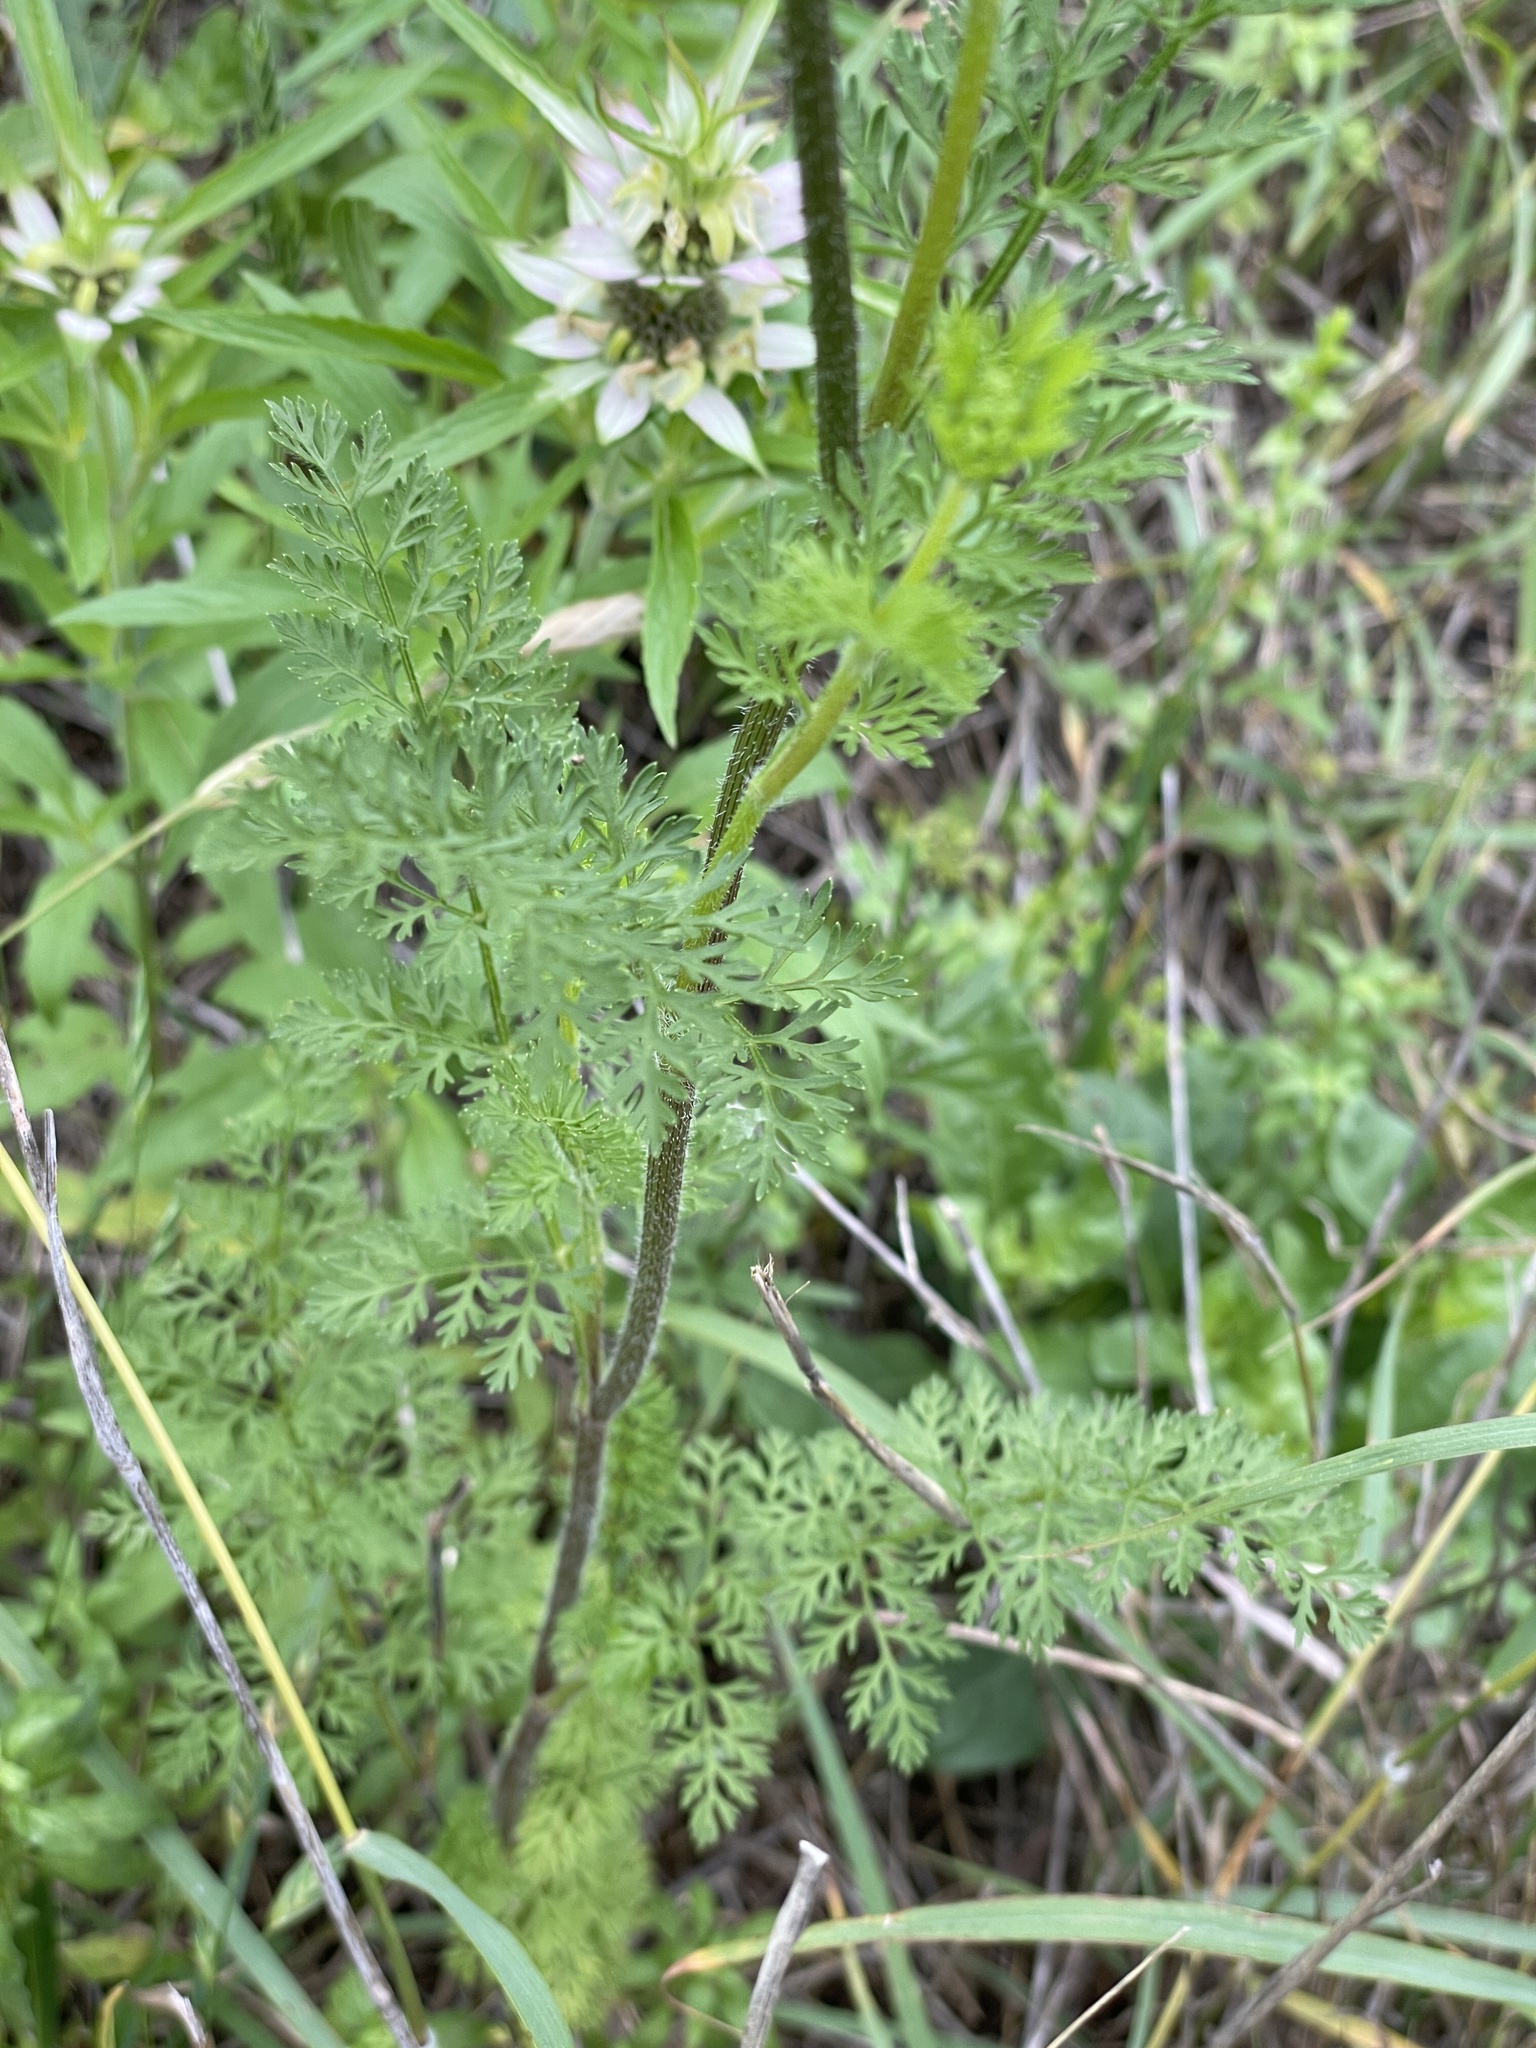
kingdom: Plantae
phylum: Tracheophyta
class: Magnoliopsida
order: Apiales
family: Apiaceae
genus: Daucus
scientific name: Daucus pusillus
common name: Southwest wild carrot
